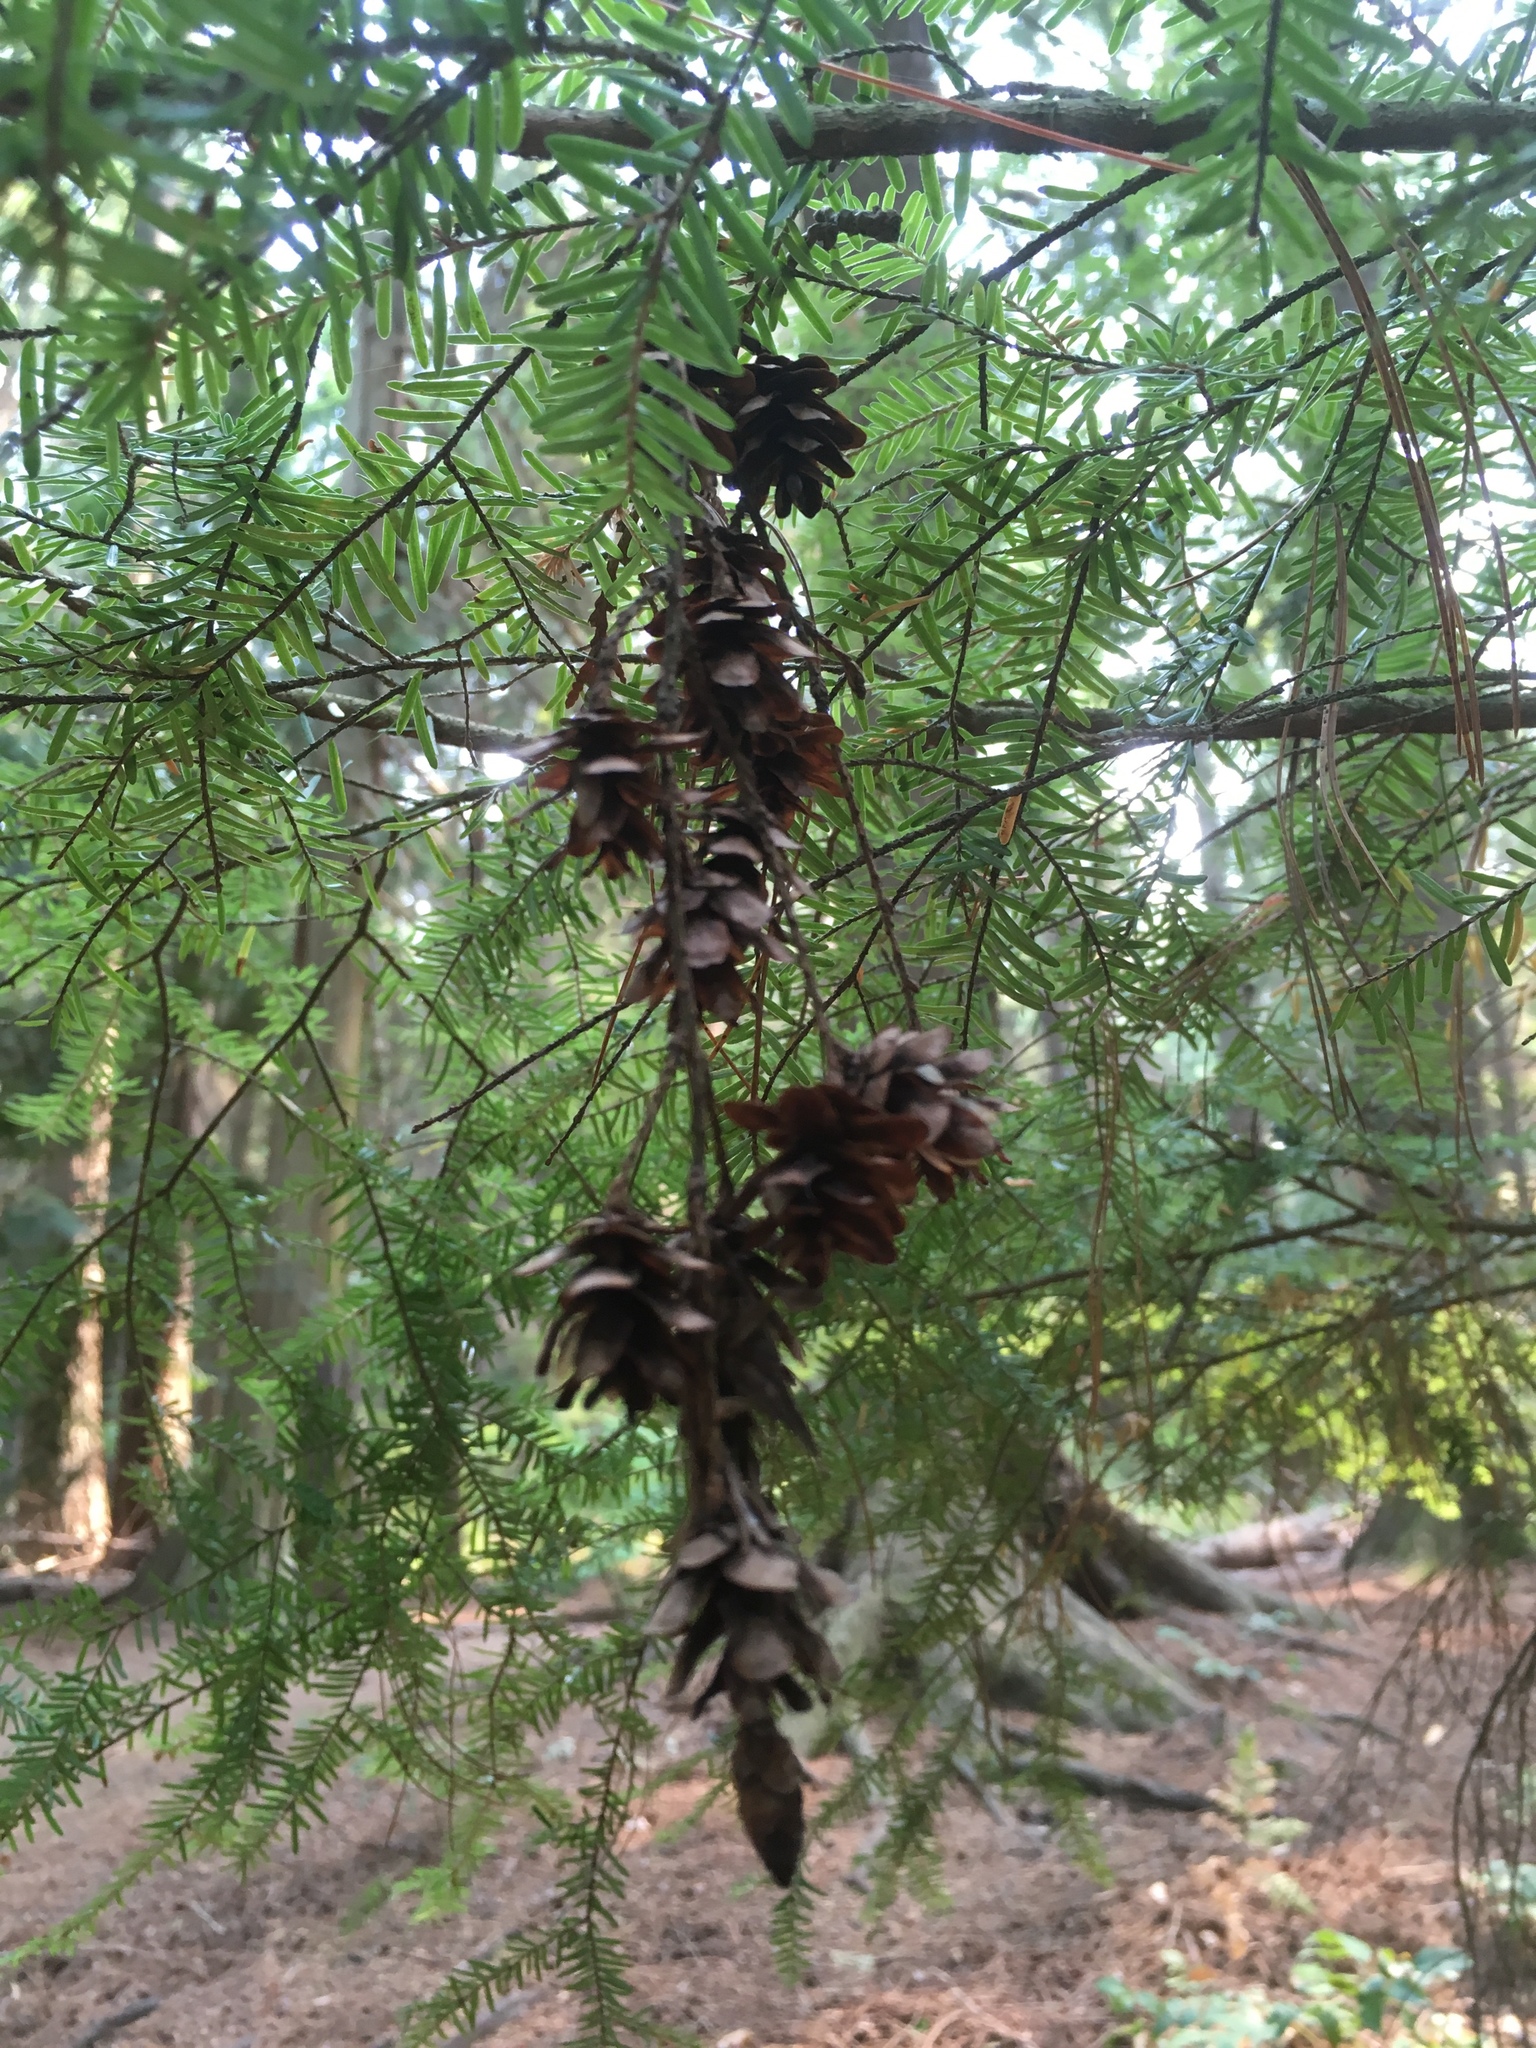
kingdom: Plantae
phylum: Tracheophyta
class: Pinopsida
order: Pinales
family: Pinaceae
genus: Tsuga
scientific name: Tsuga heterophylla
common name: Western hemlock
